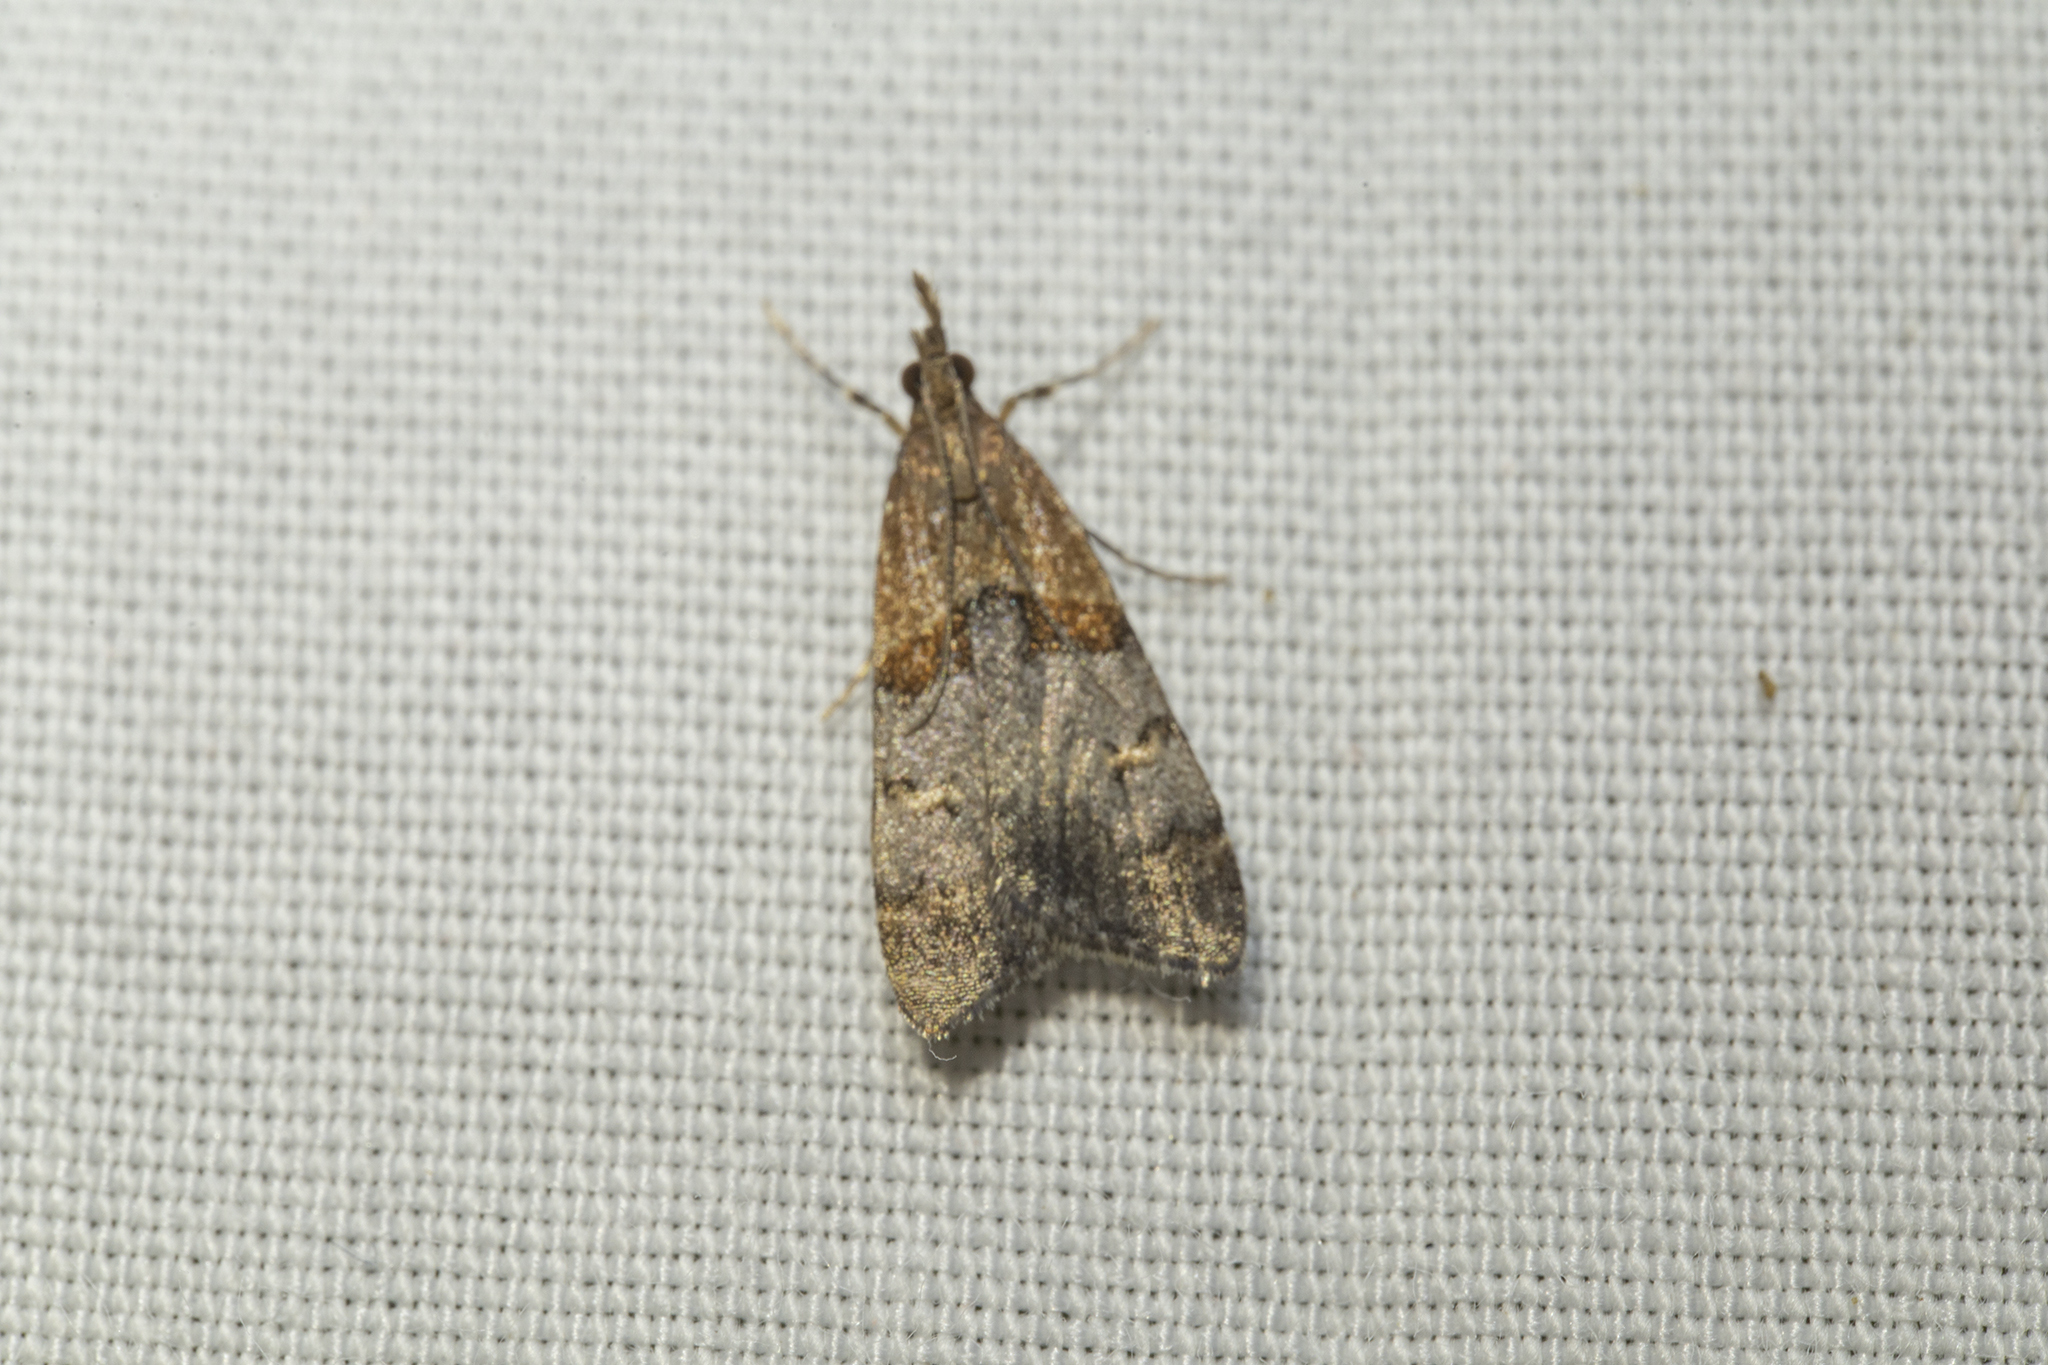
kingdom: Animalia
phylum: Arthropoda
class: Insecta
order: Lepidoptera
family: Crambidae
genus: Antiscopa
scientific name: Antiscopa epicomia
